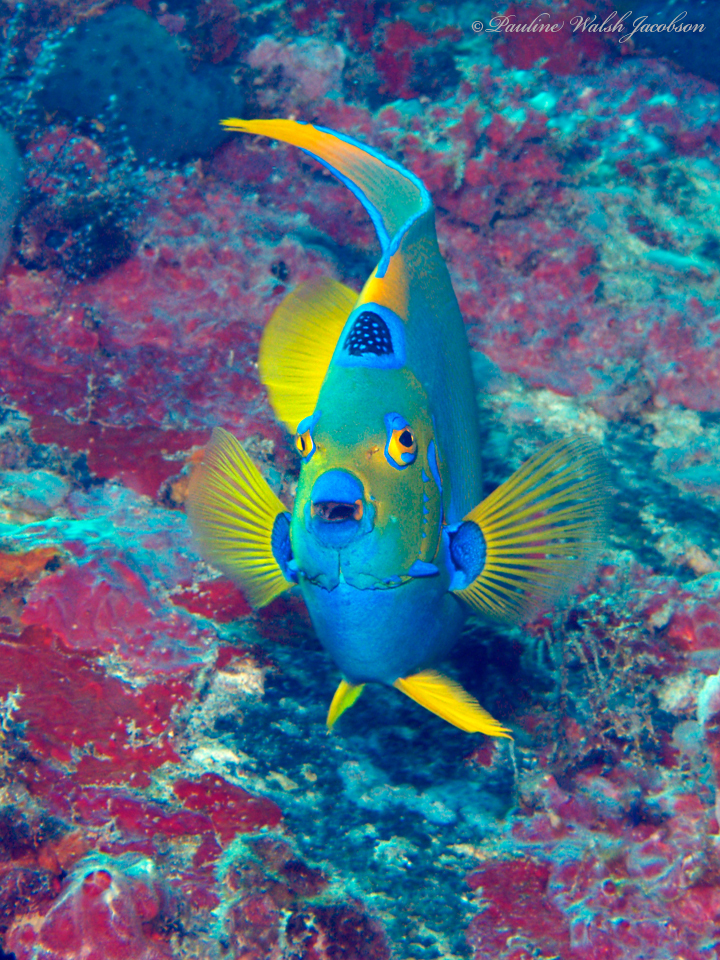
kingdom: Animalia
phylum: Chordata
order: Perciformes
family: Pomacanthidae
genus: Holacanthus
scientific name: Holacanthus ciliaris
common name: Queen angelfish
